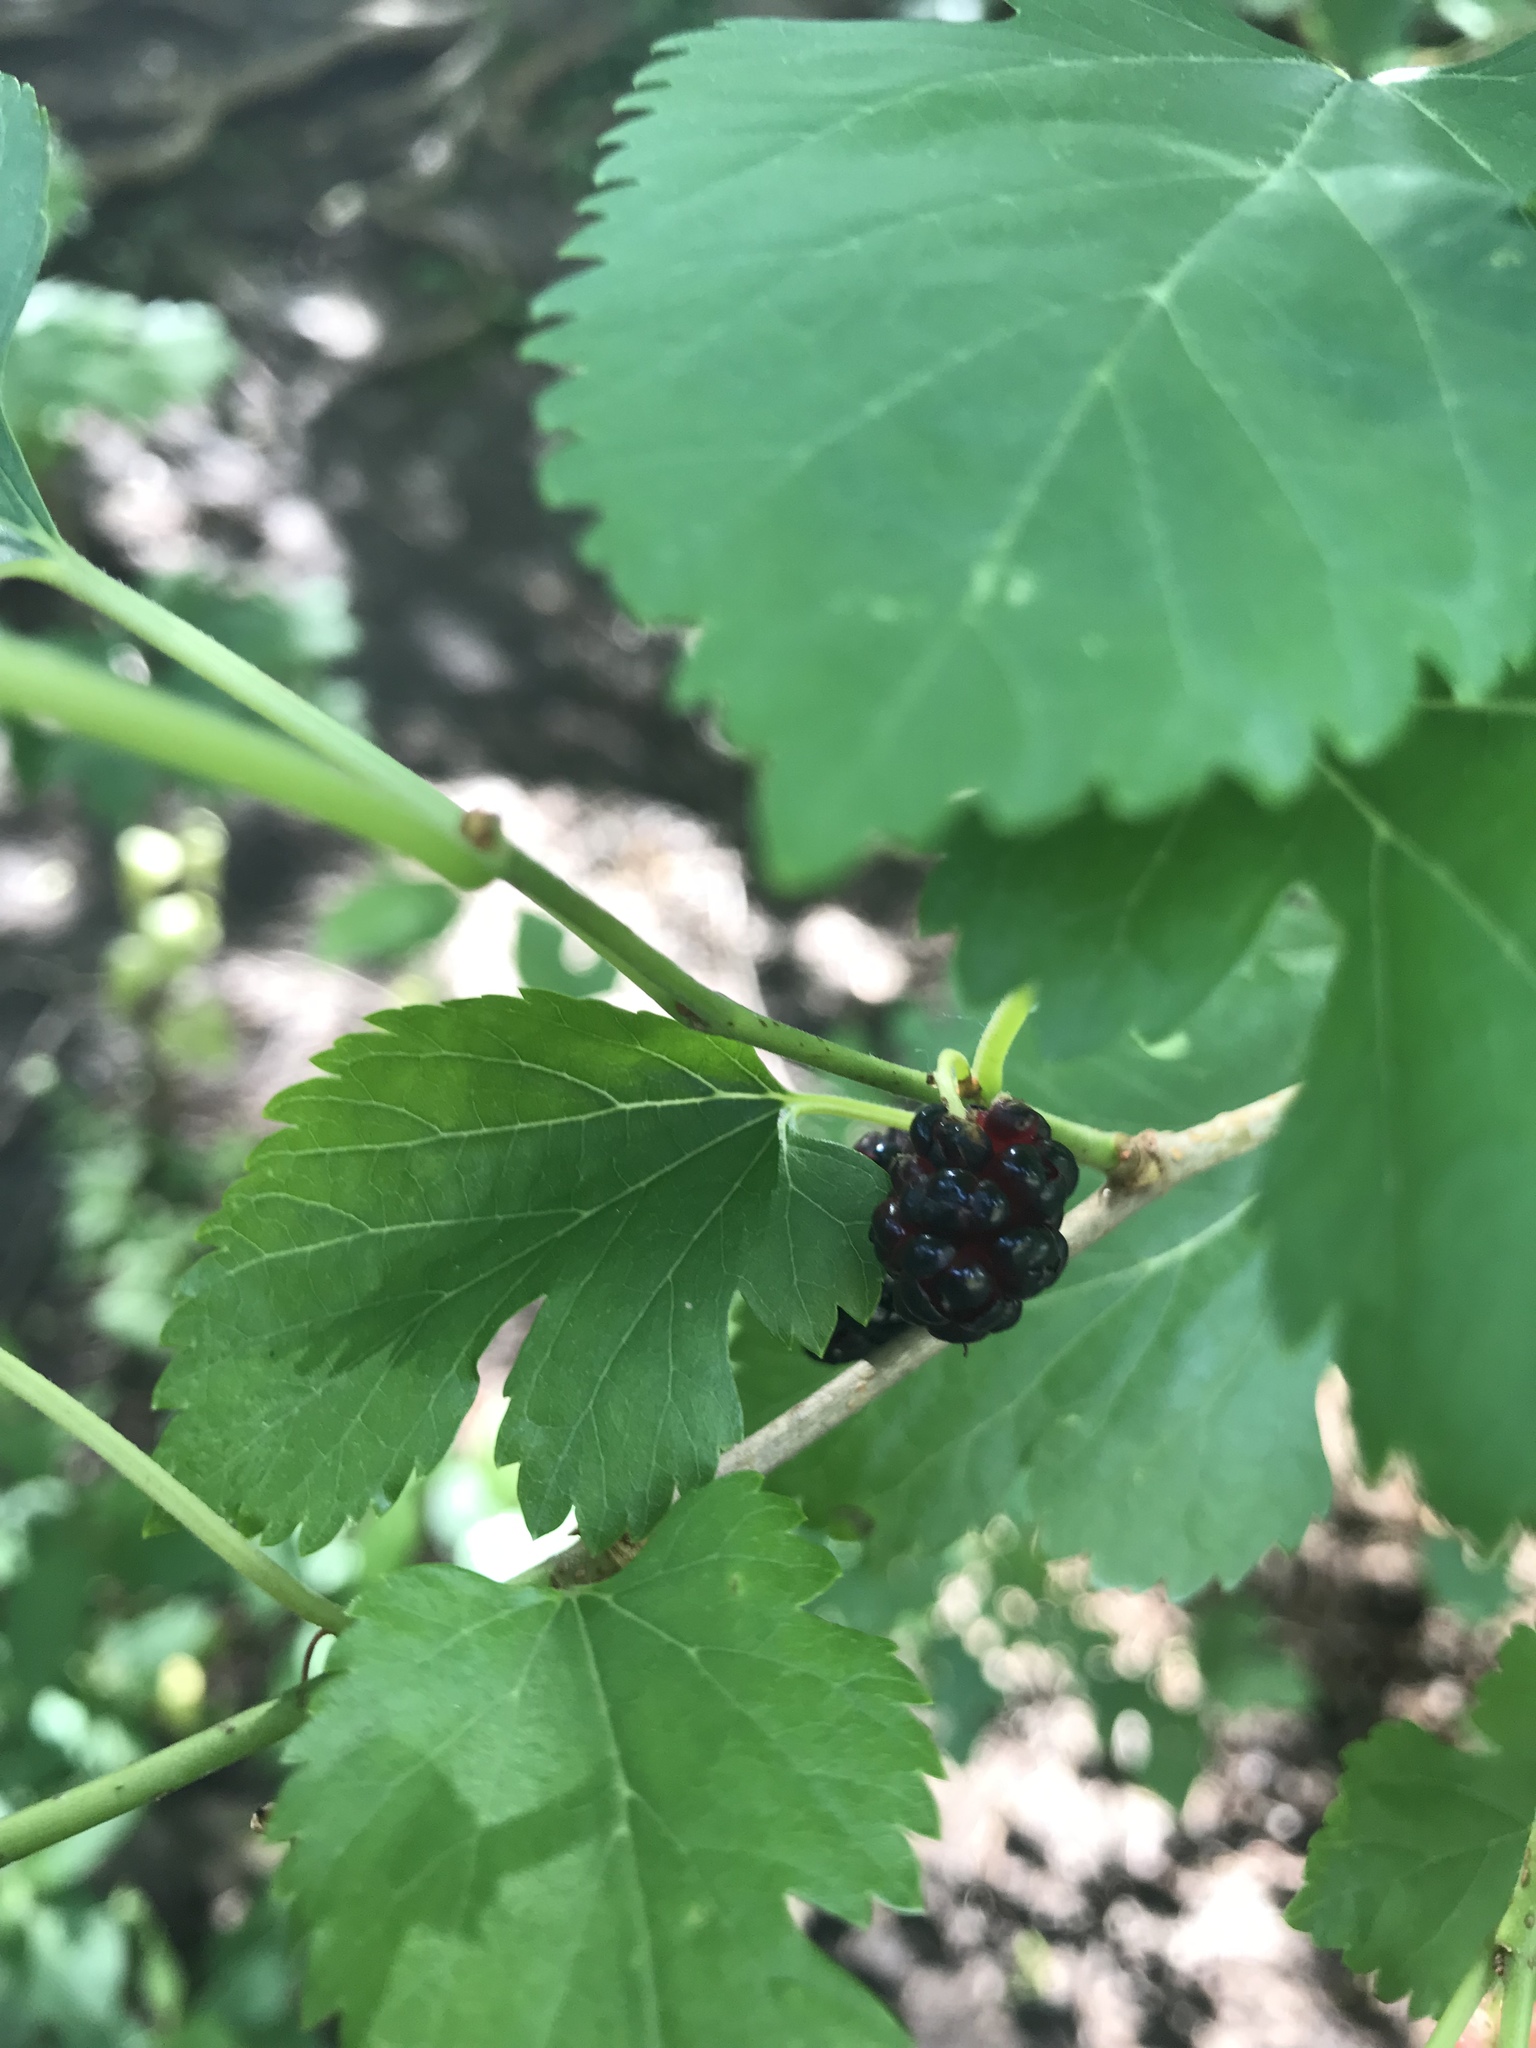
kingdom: Plantae
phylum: Tracheophyta
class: Magnoliopsida
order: Rosales
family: Moraceae
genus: Morus
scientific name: Morus alba
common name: White mulberry
